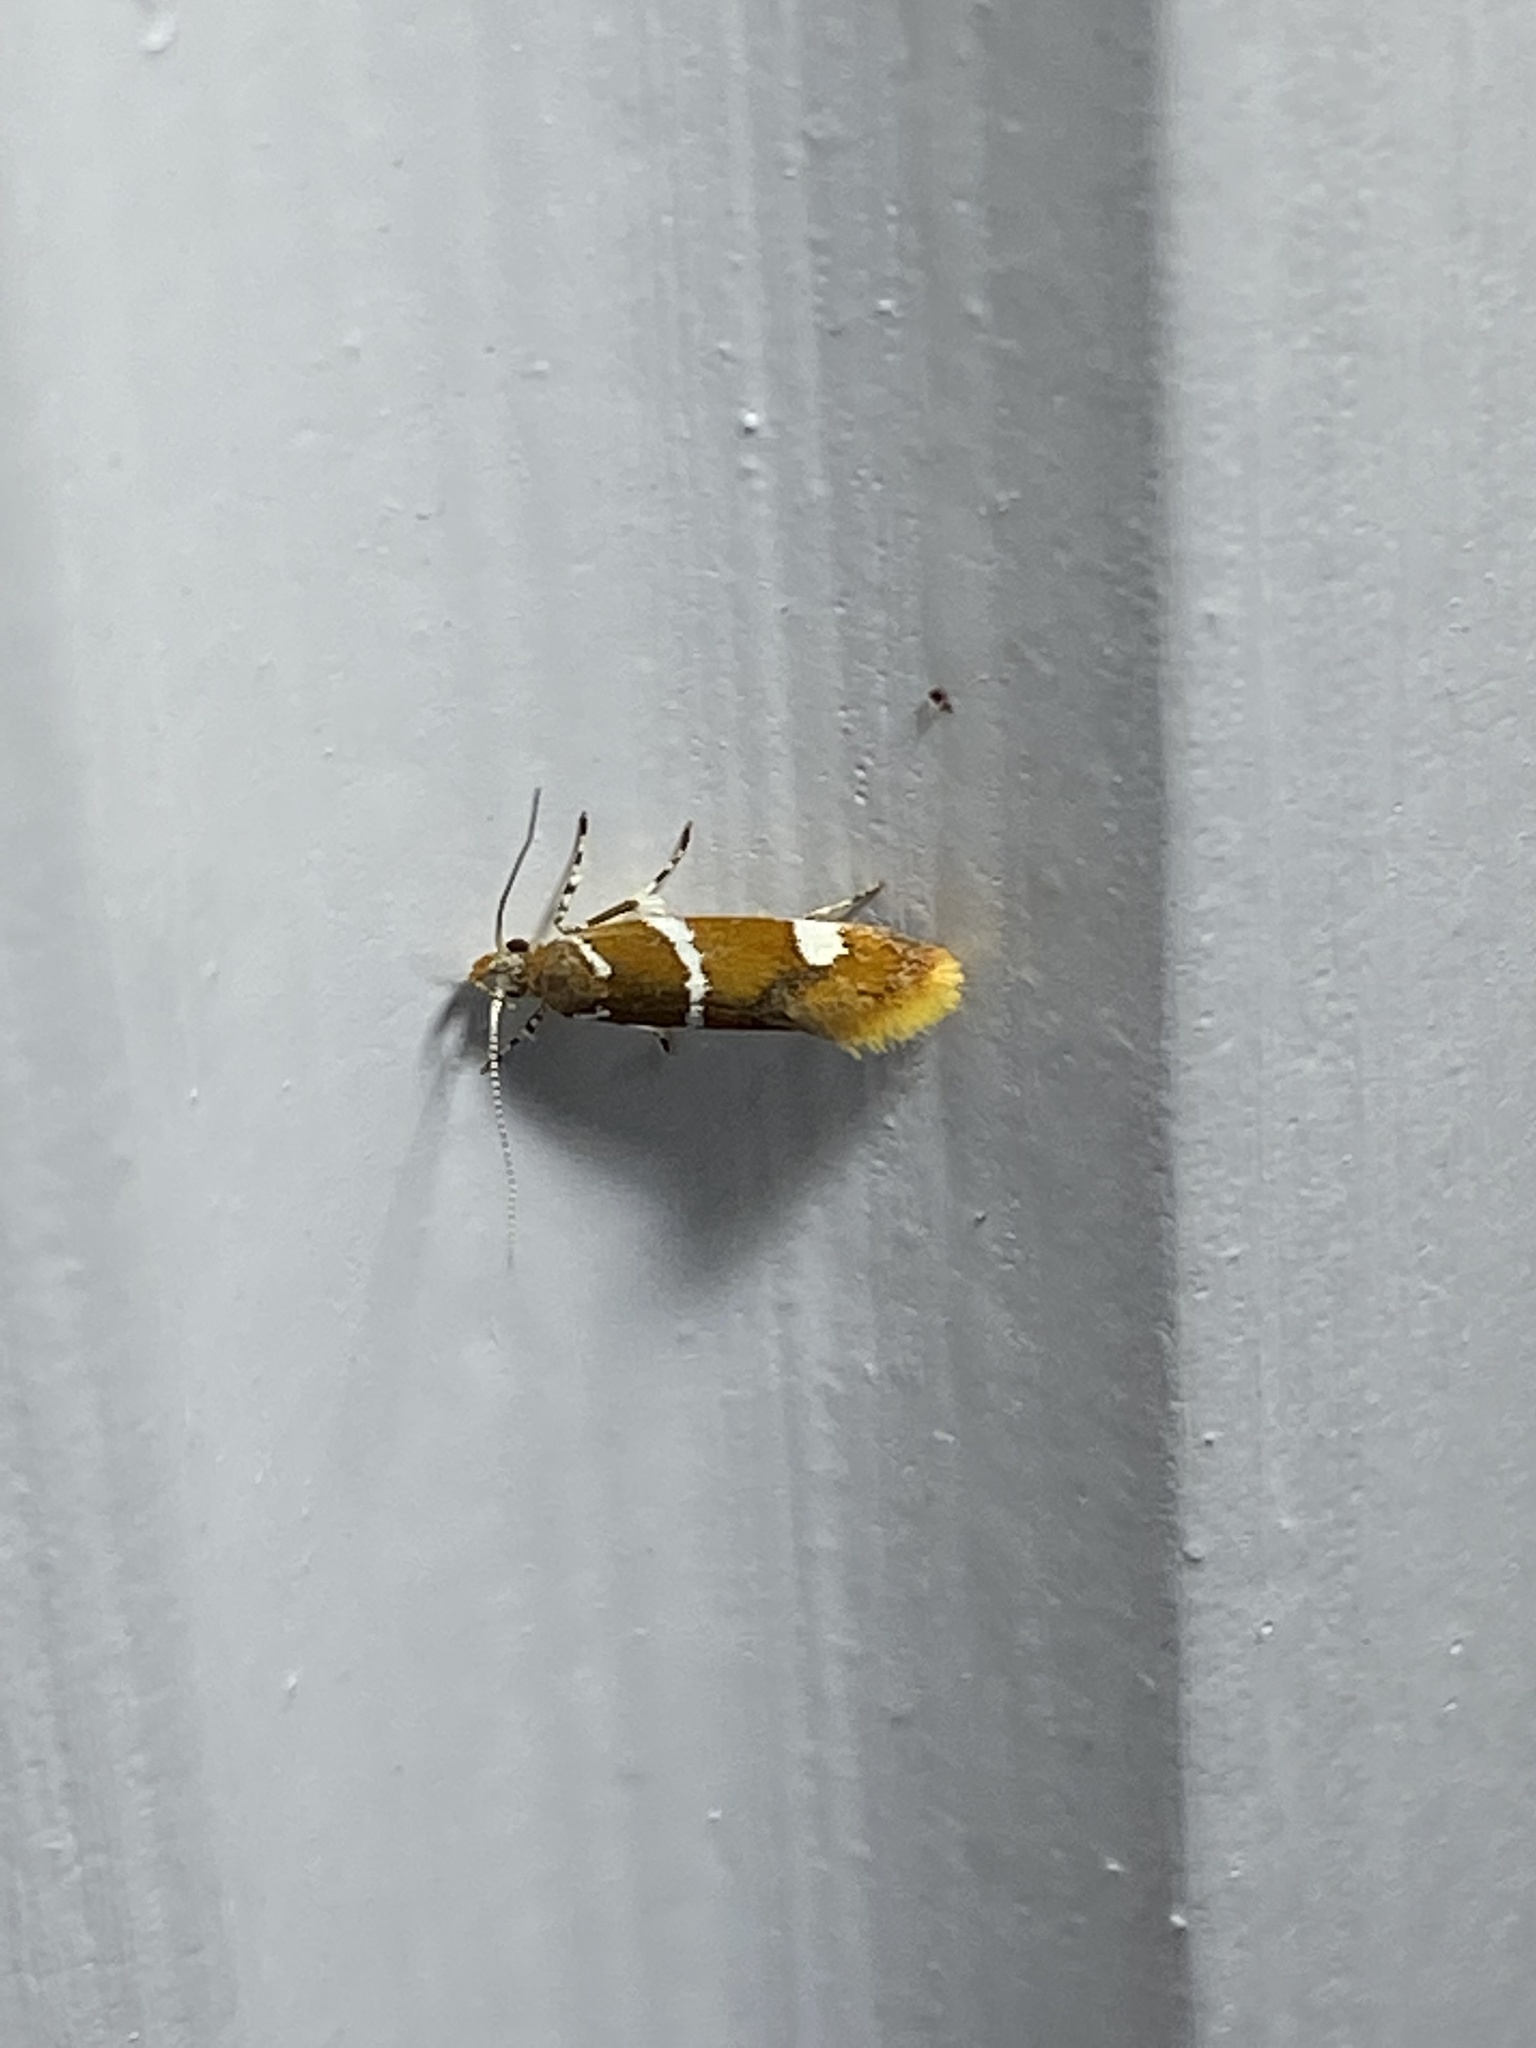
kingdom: Animalia
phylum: Arthropoda
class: Insecta
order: Lepidoptera
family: Oecophoridae
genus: Promalactis
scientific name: Promalactis suzukiella
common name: Moth
